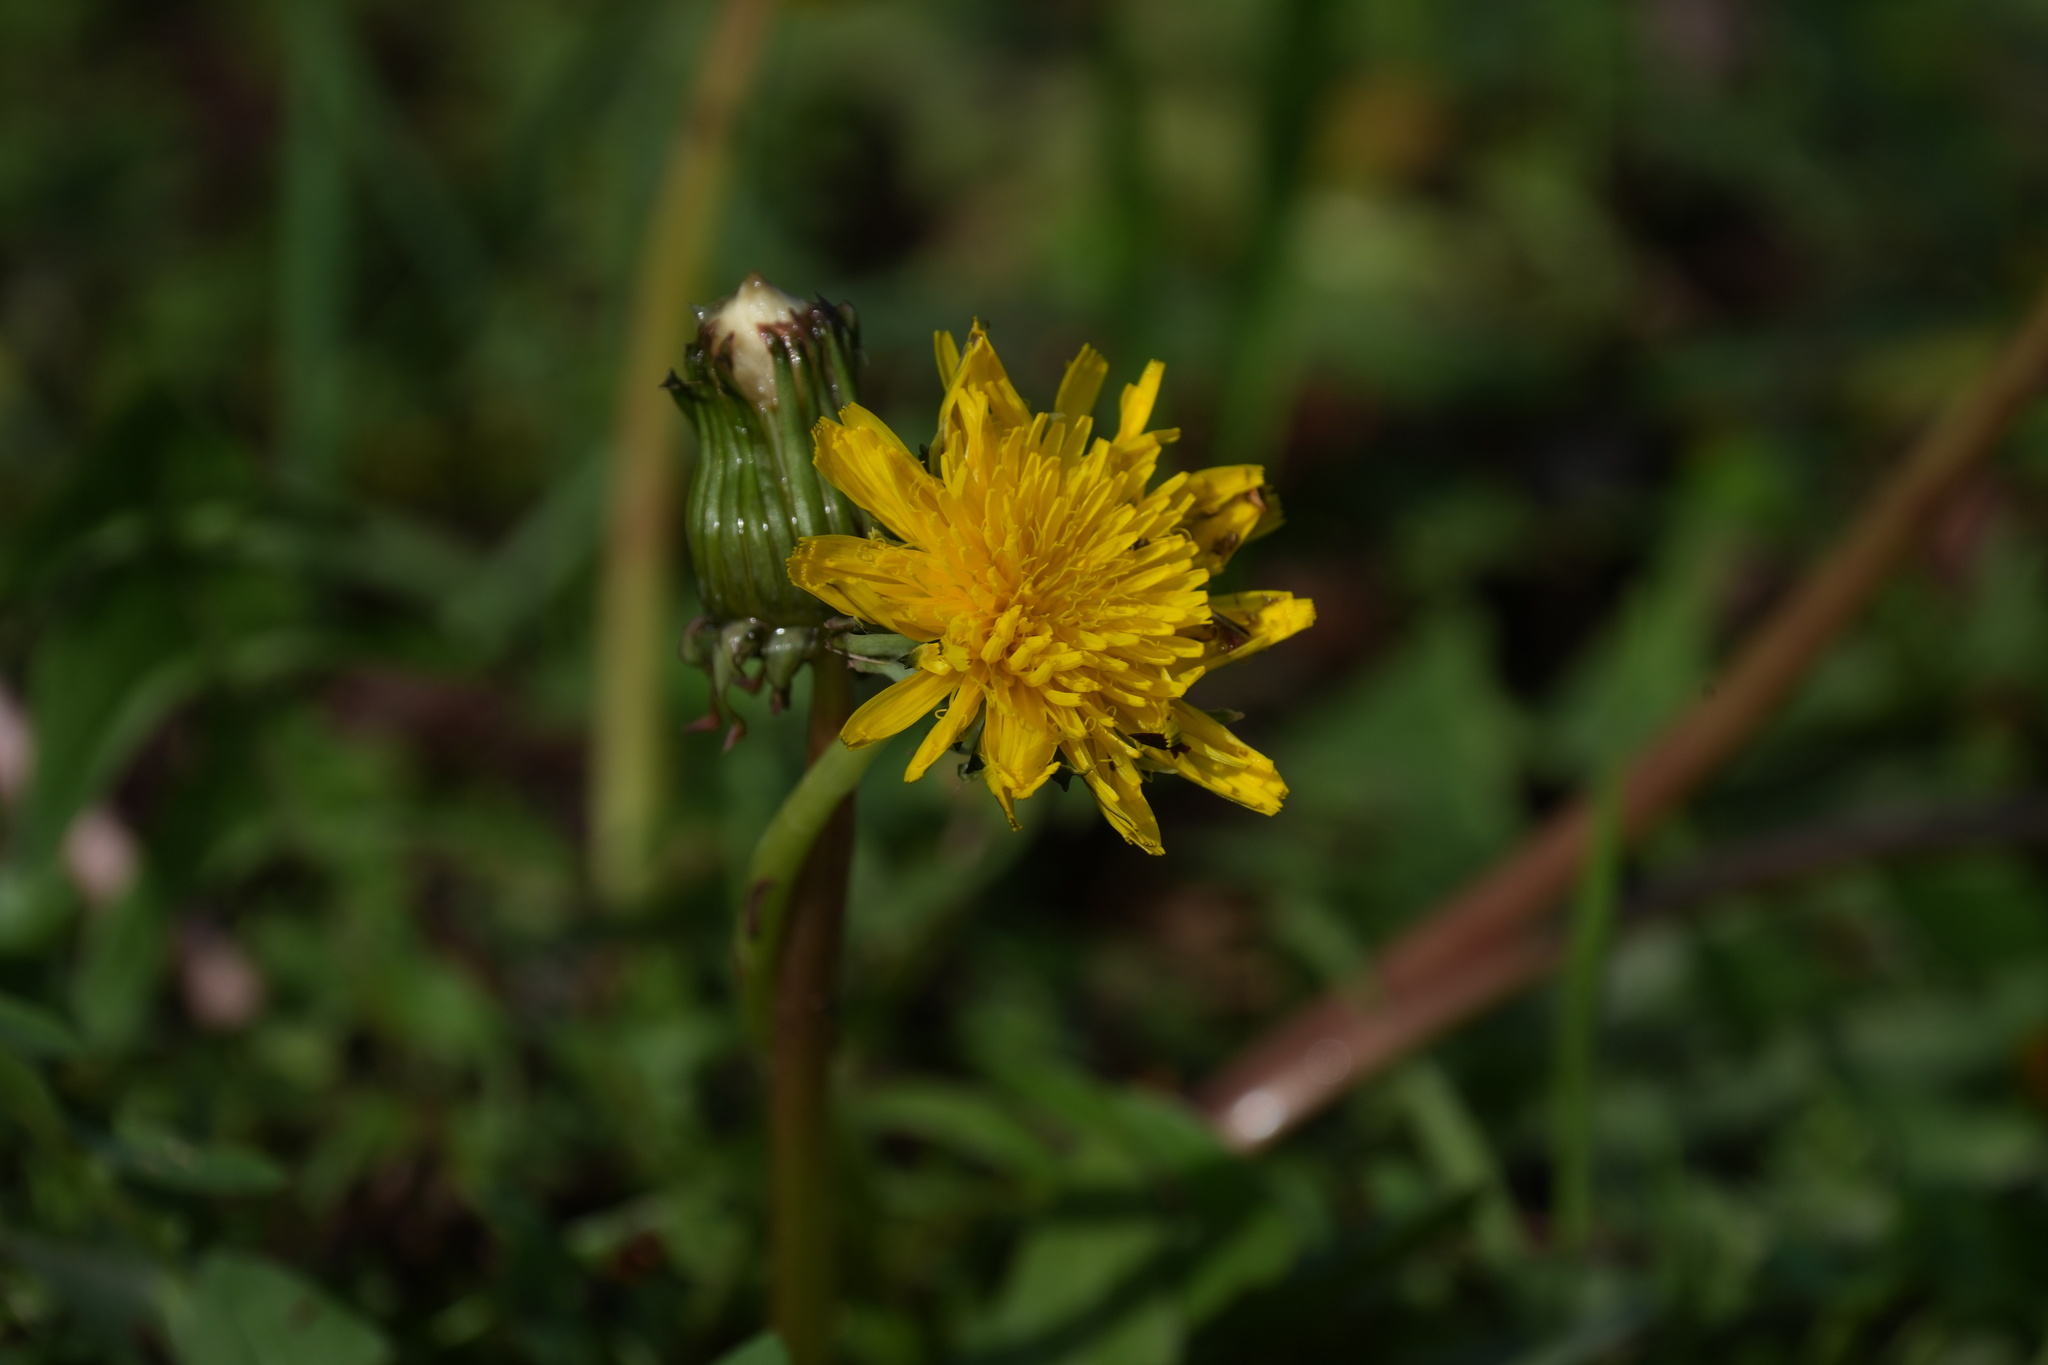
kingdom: Plantae
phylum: Tracheophyta
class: Magnoliopsida
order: Asterales
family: Asteraceae
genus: Taraxacum
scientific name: Taraxacum officinale
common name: Common dandelion
